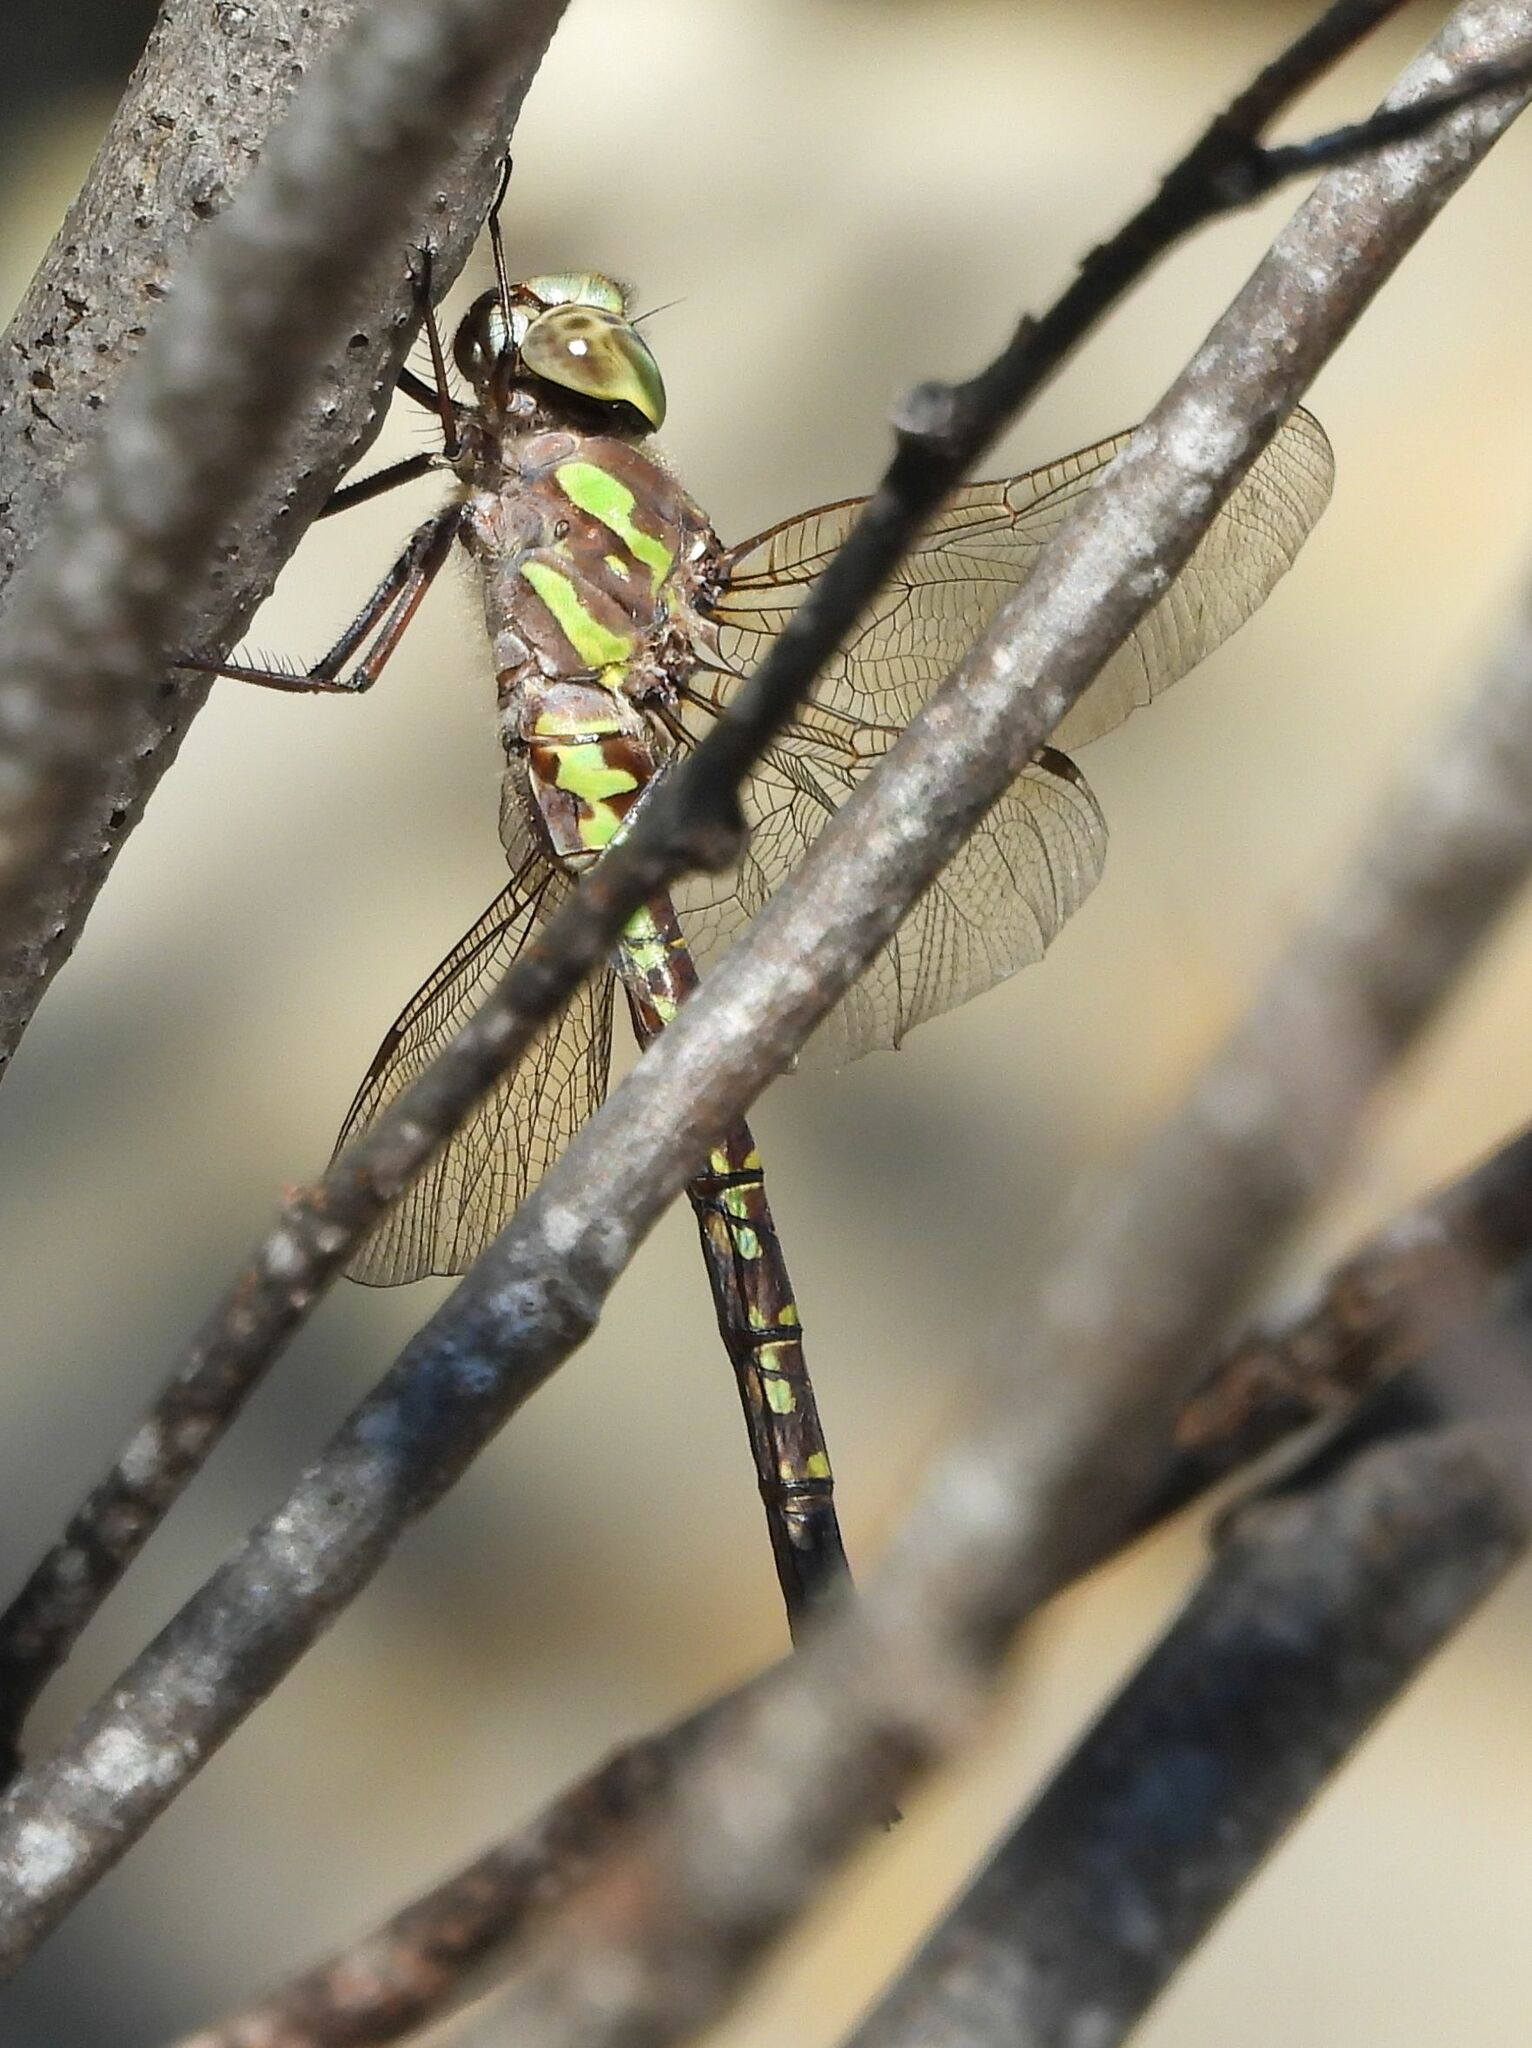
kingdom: Animalia
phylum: Arthropoda
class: Insecta
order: Odonata
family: Aeshnidae
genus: Aeshna
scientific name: Aeshna canadensis
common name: Canada darner
